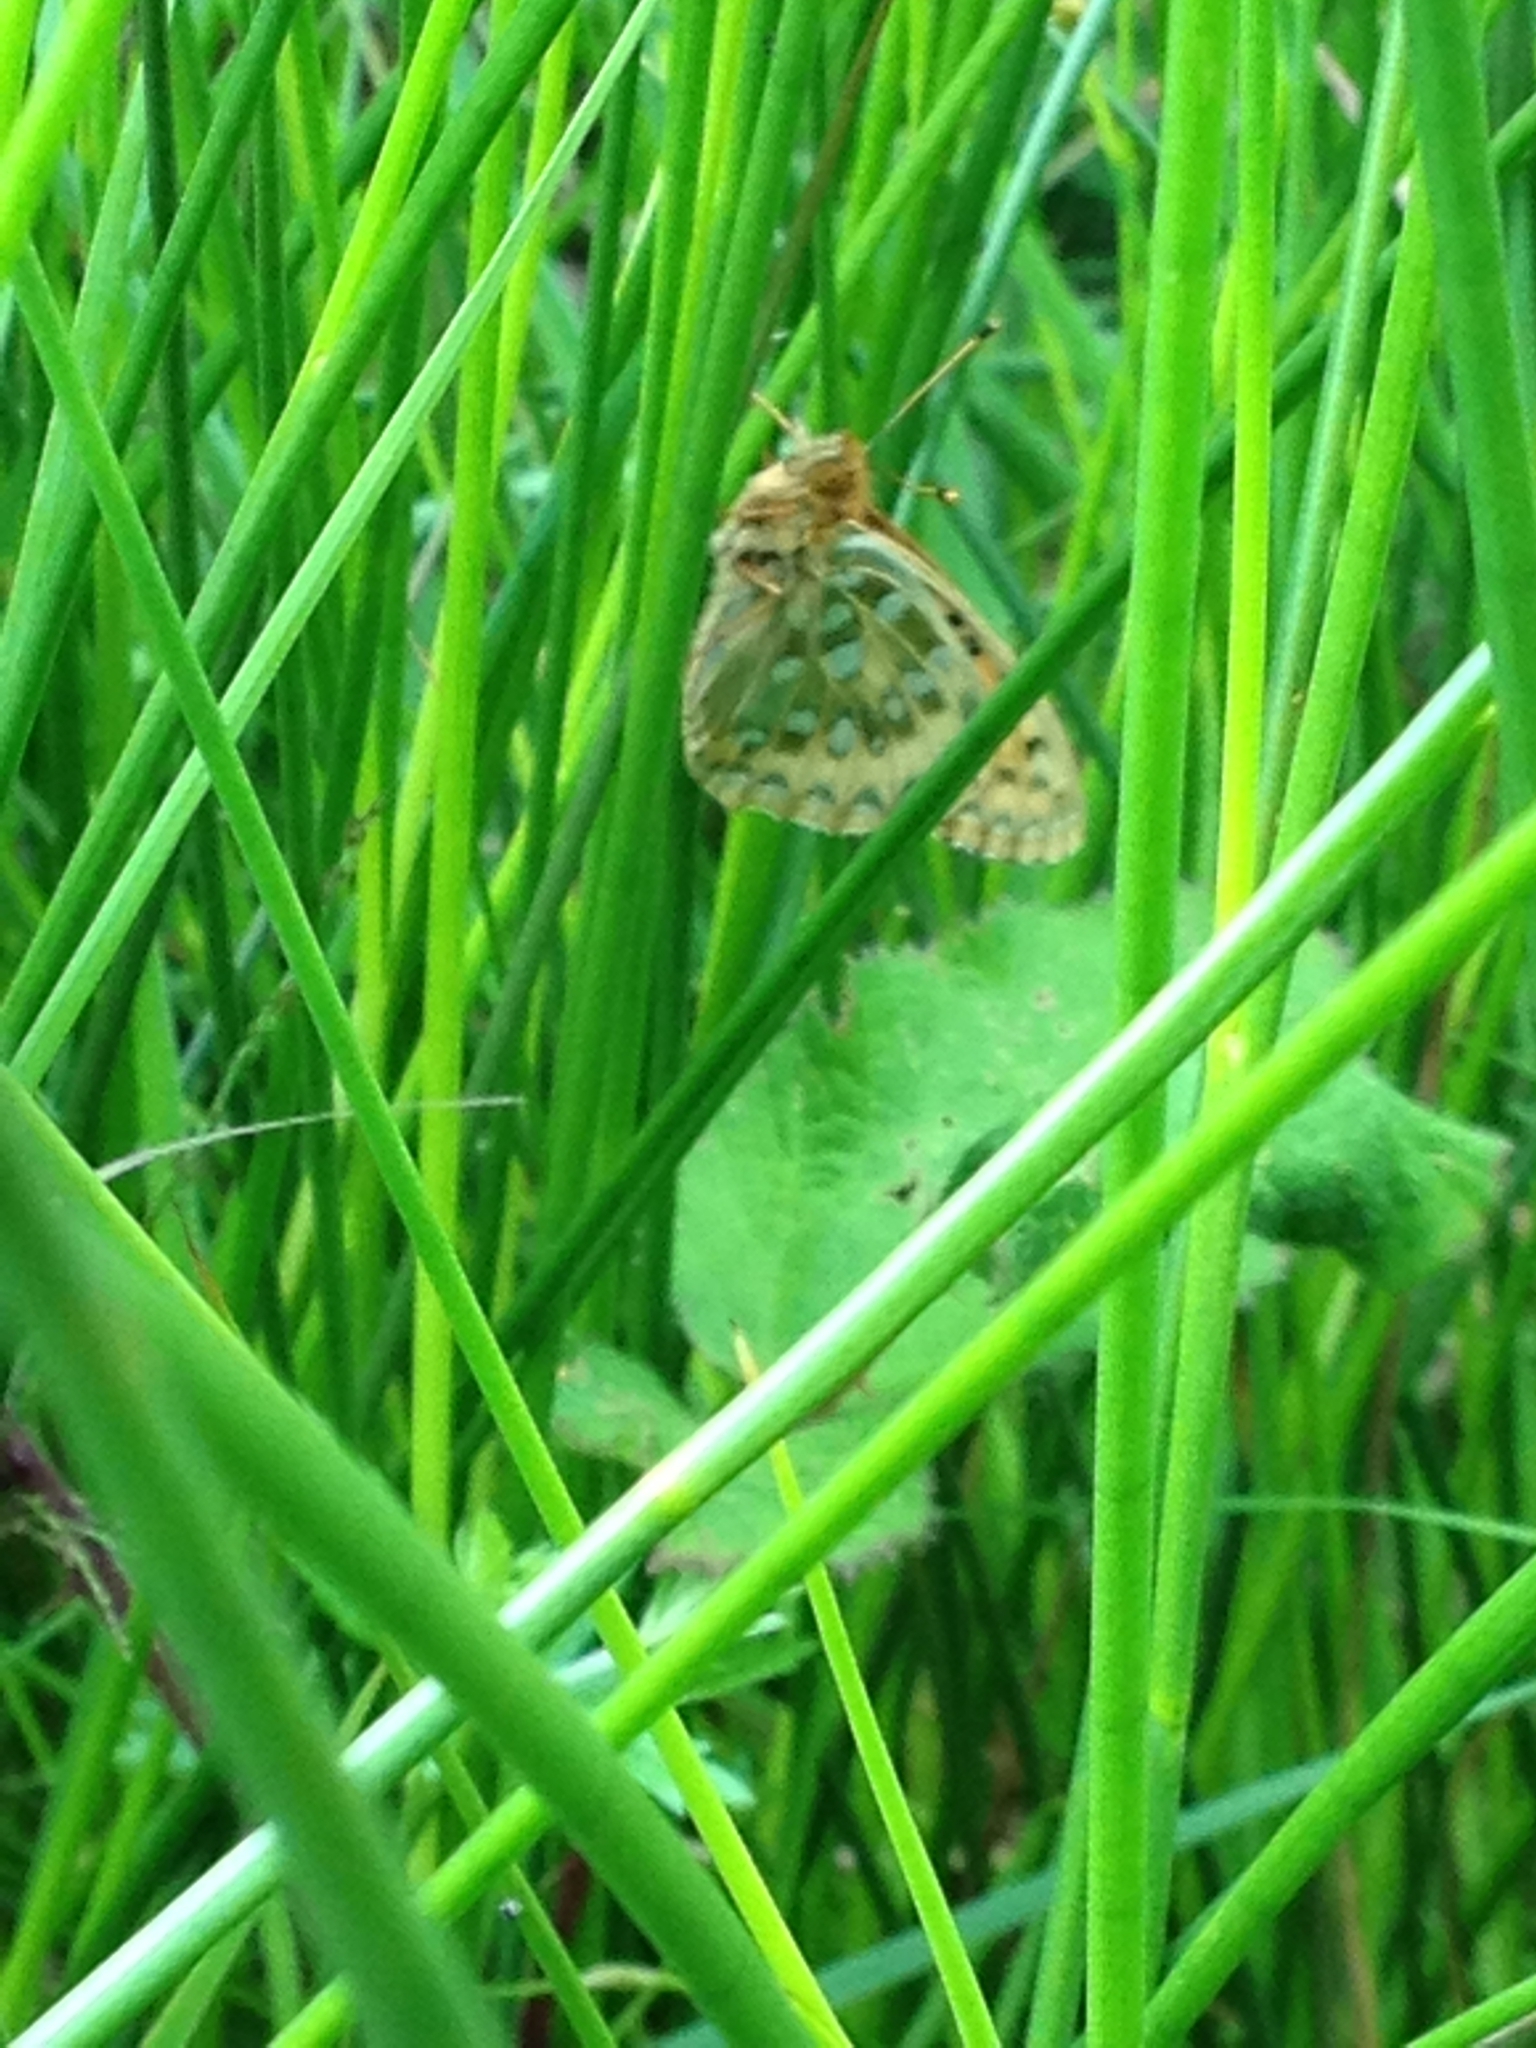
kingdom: Animalia
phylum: Arthropoda
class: Insecta
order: Lepidoptera
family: Nymphalidae
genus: Speyeria
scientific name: Speyeria aglaja
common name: Dark green fritillary
